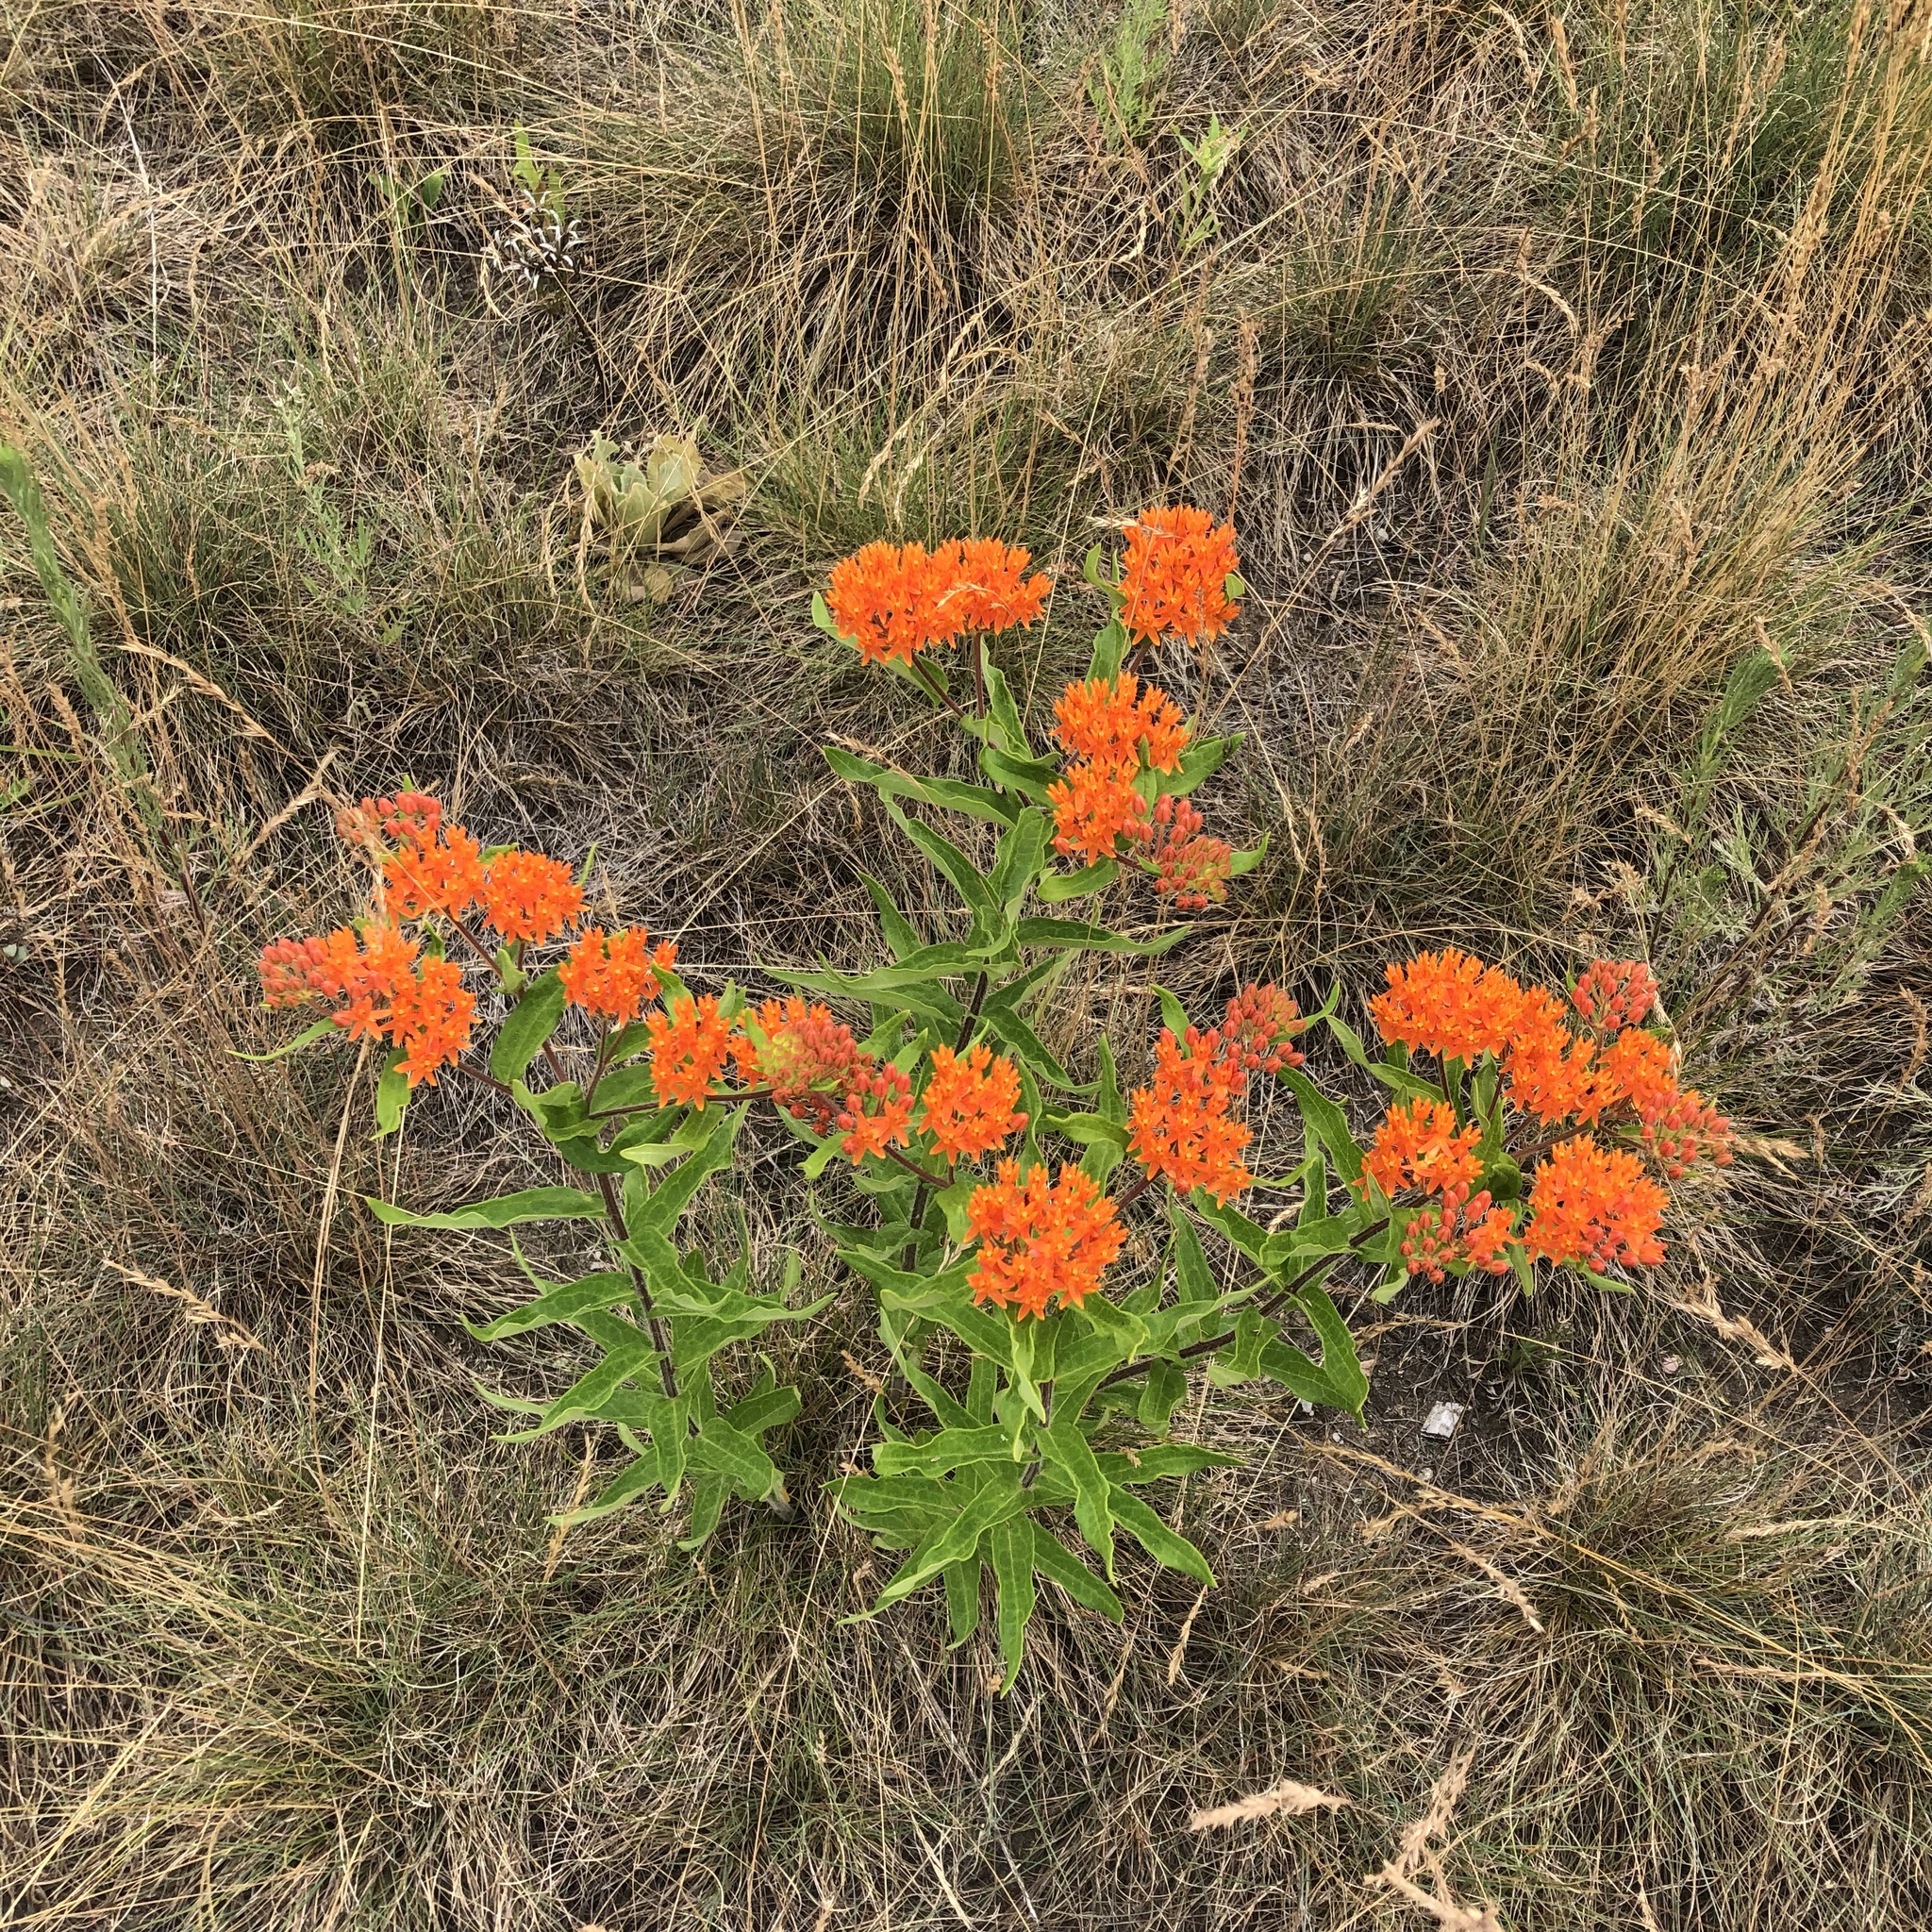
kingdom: Plantae
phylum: Tracheophyta
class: Magnoliopsida
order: Gentianales
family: Apocynaceae
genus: Asclepias
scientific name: Asclepias tuberosa
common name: Butterfly milkweed
